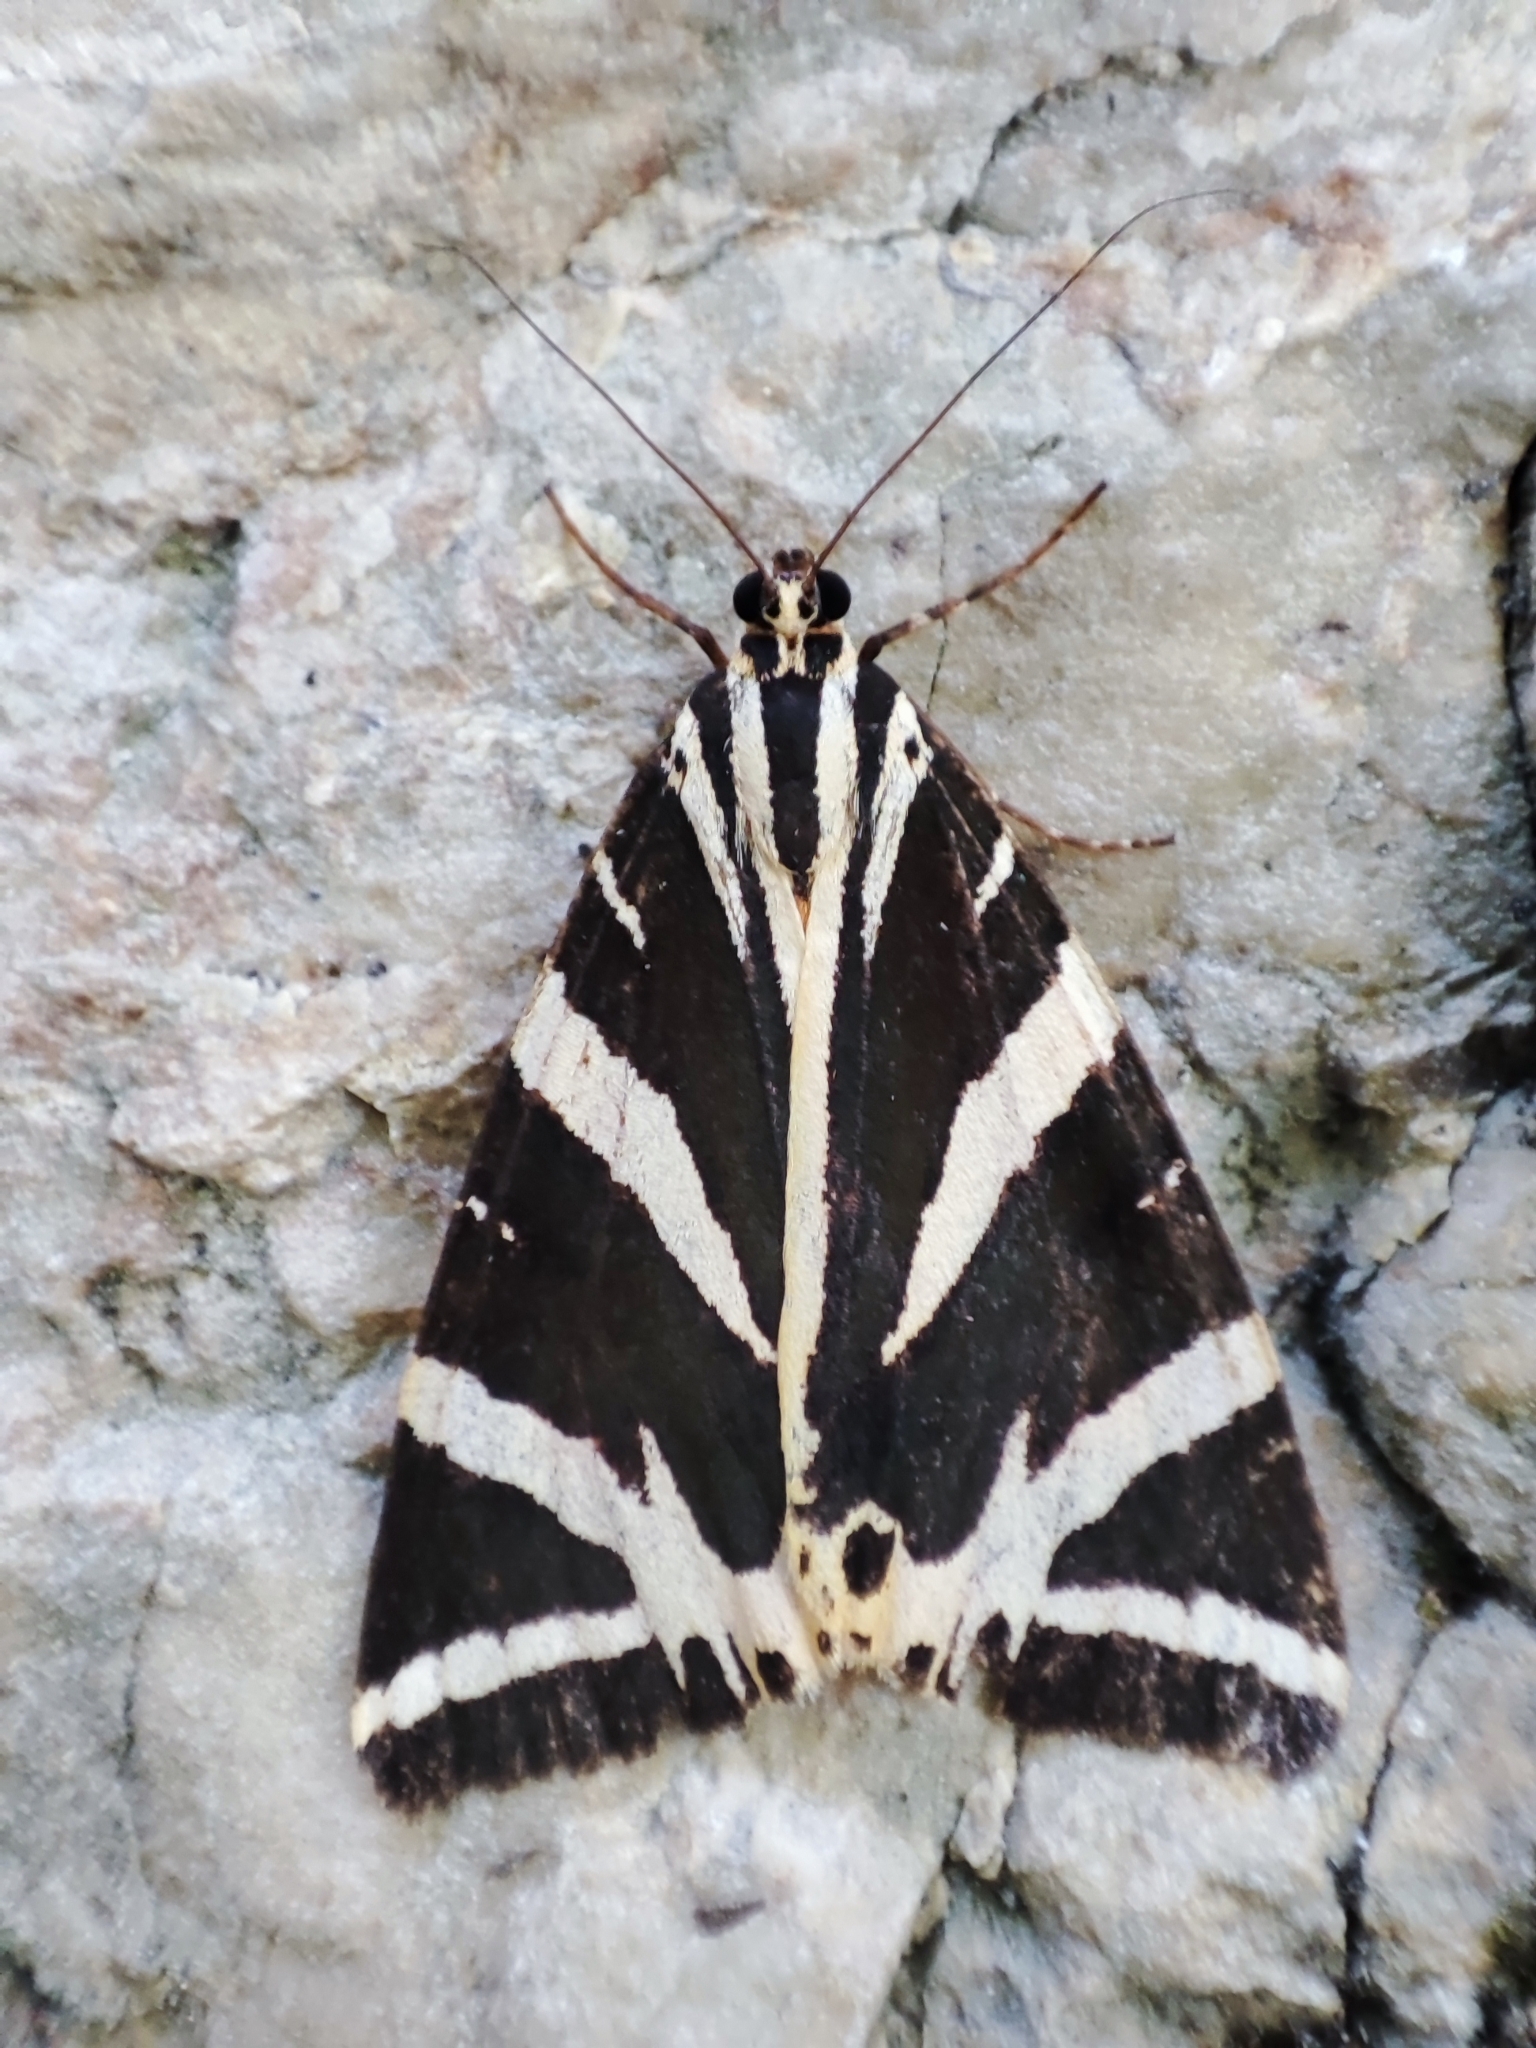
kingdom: Animalia
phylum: Arthropoda
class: Insecta
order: Lepidoptera
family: Erebidae
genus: Euplagia
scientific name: Euplagia quadripunctaria
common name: Jersey tiger
